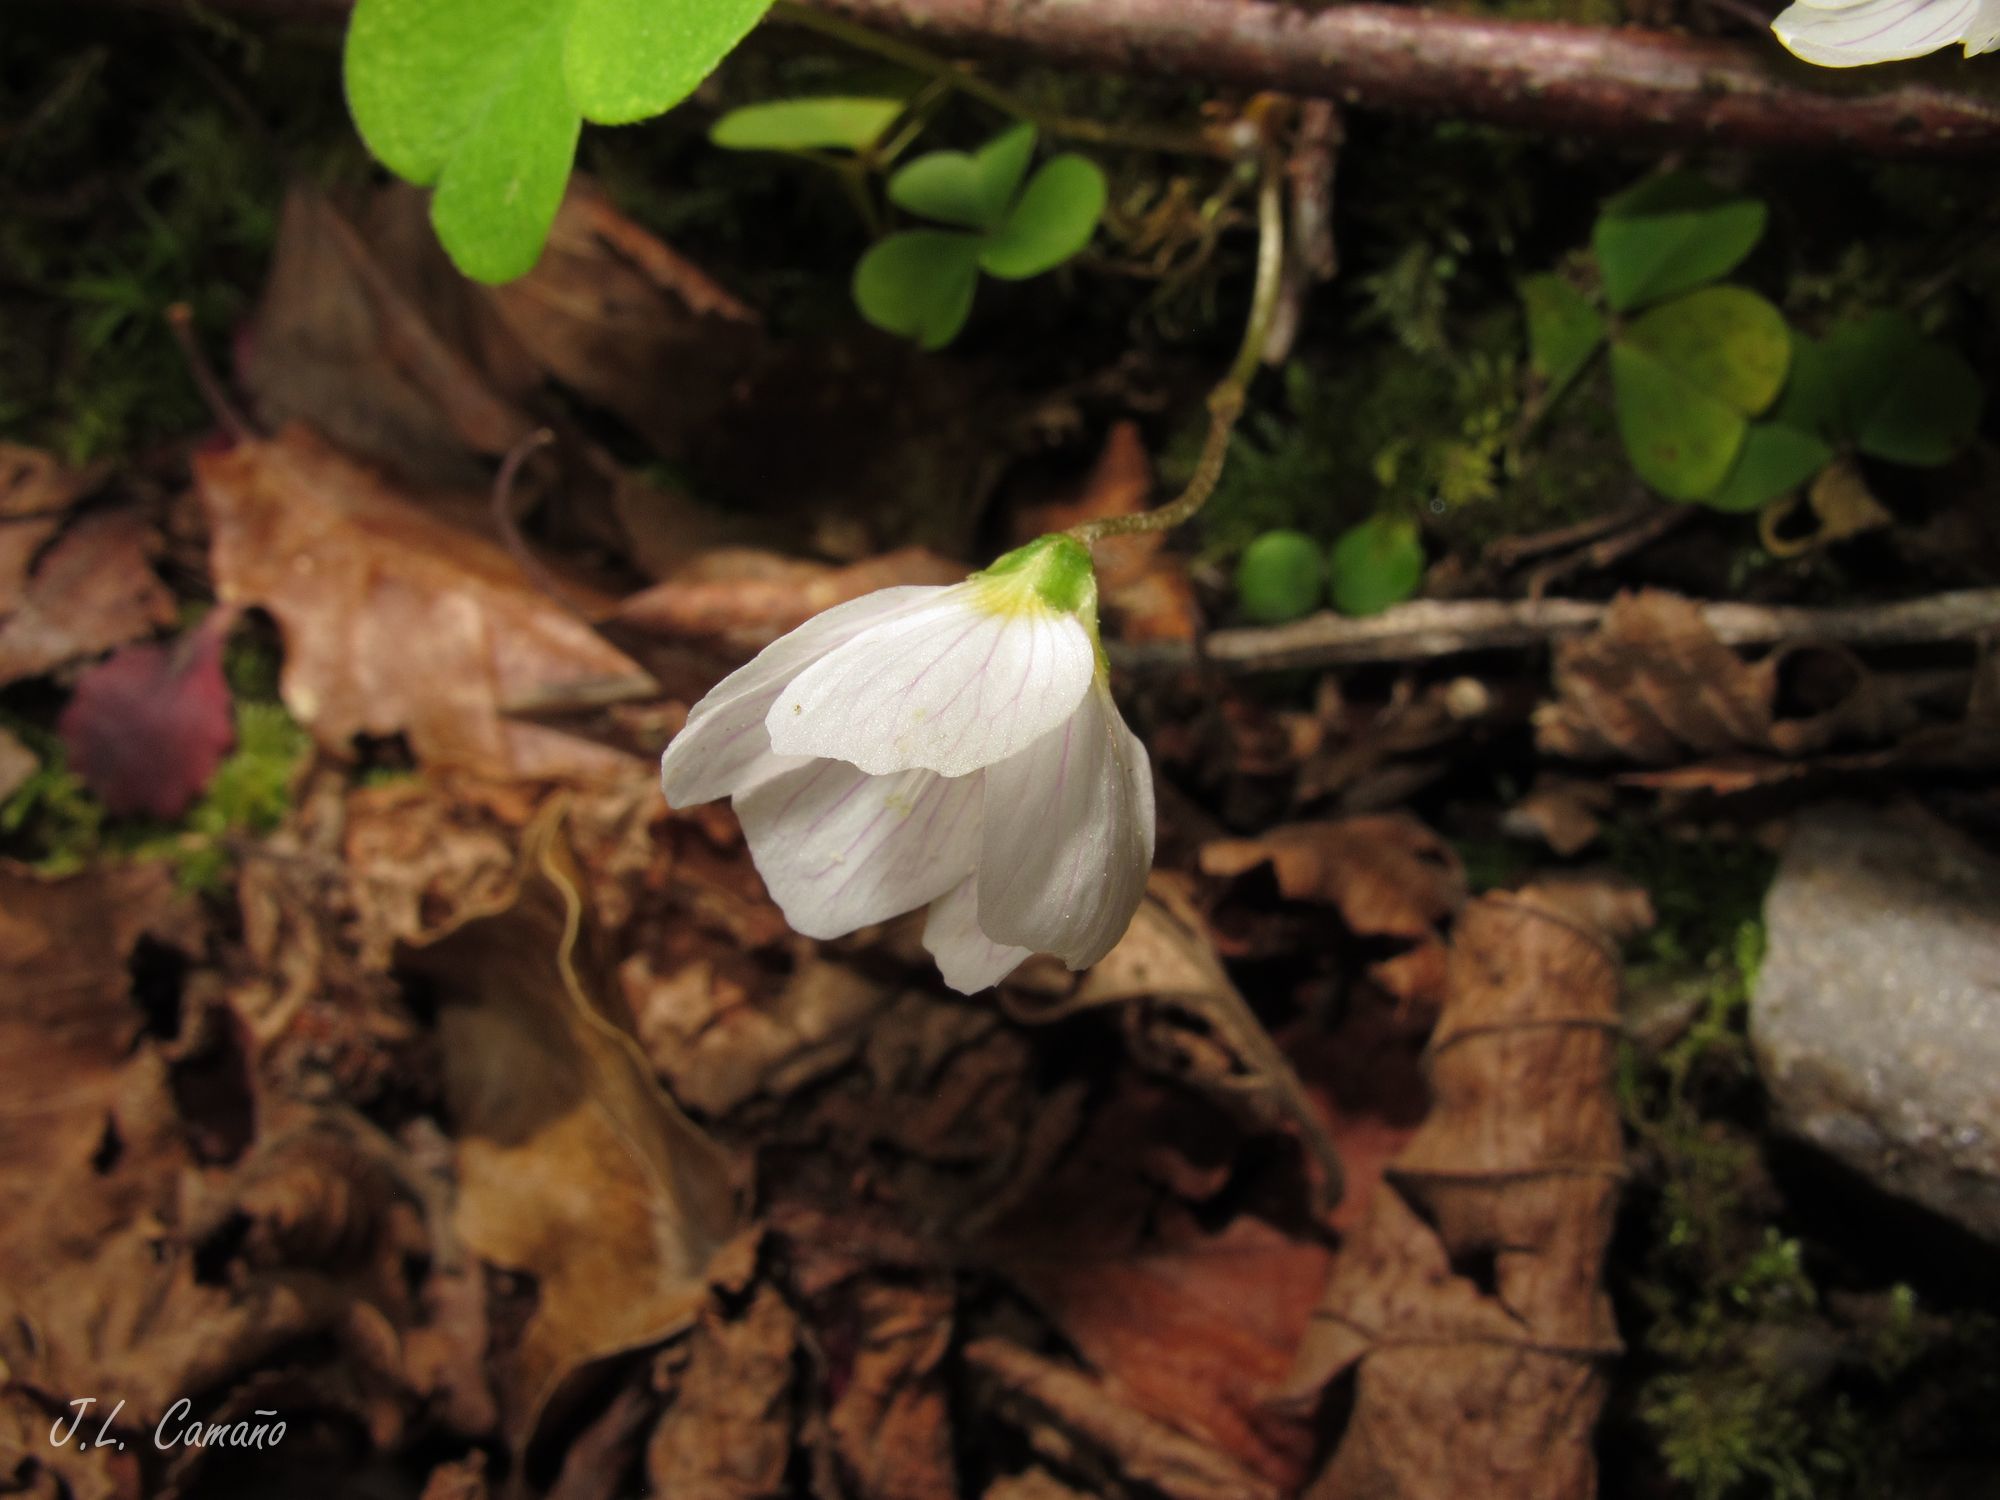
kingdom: Plantae
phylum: Tracheophyta
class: Magnoliopsida
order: Oxalidales
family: Oxalidaceae
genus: Oxalis
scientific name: Oxalis acetosella
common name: Wood-sorrel
